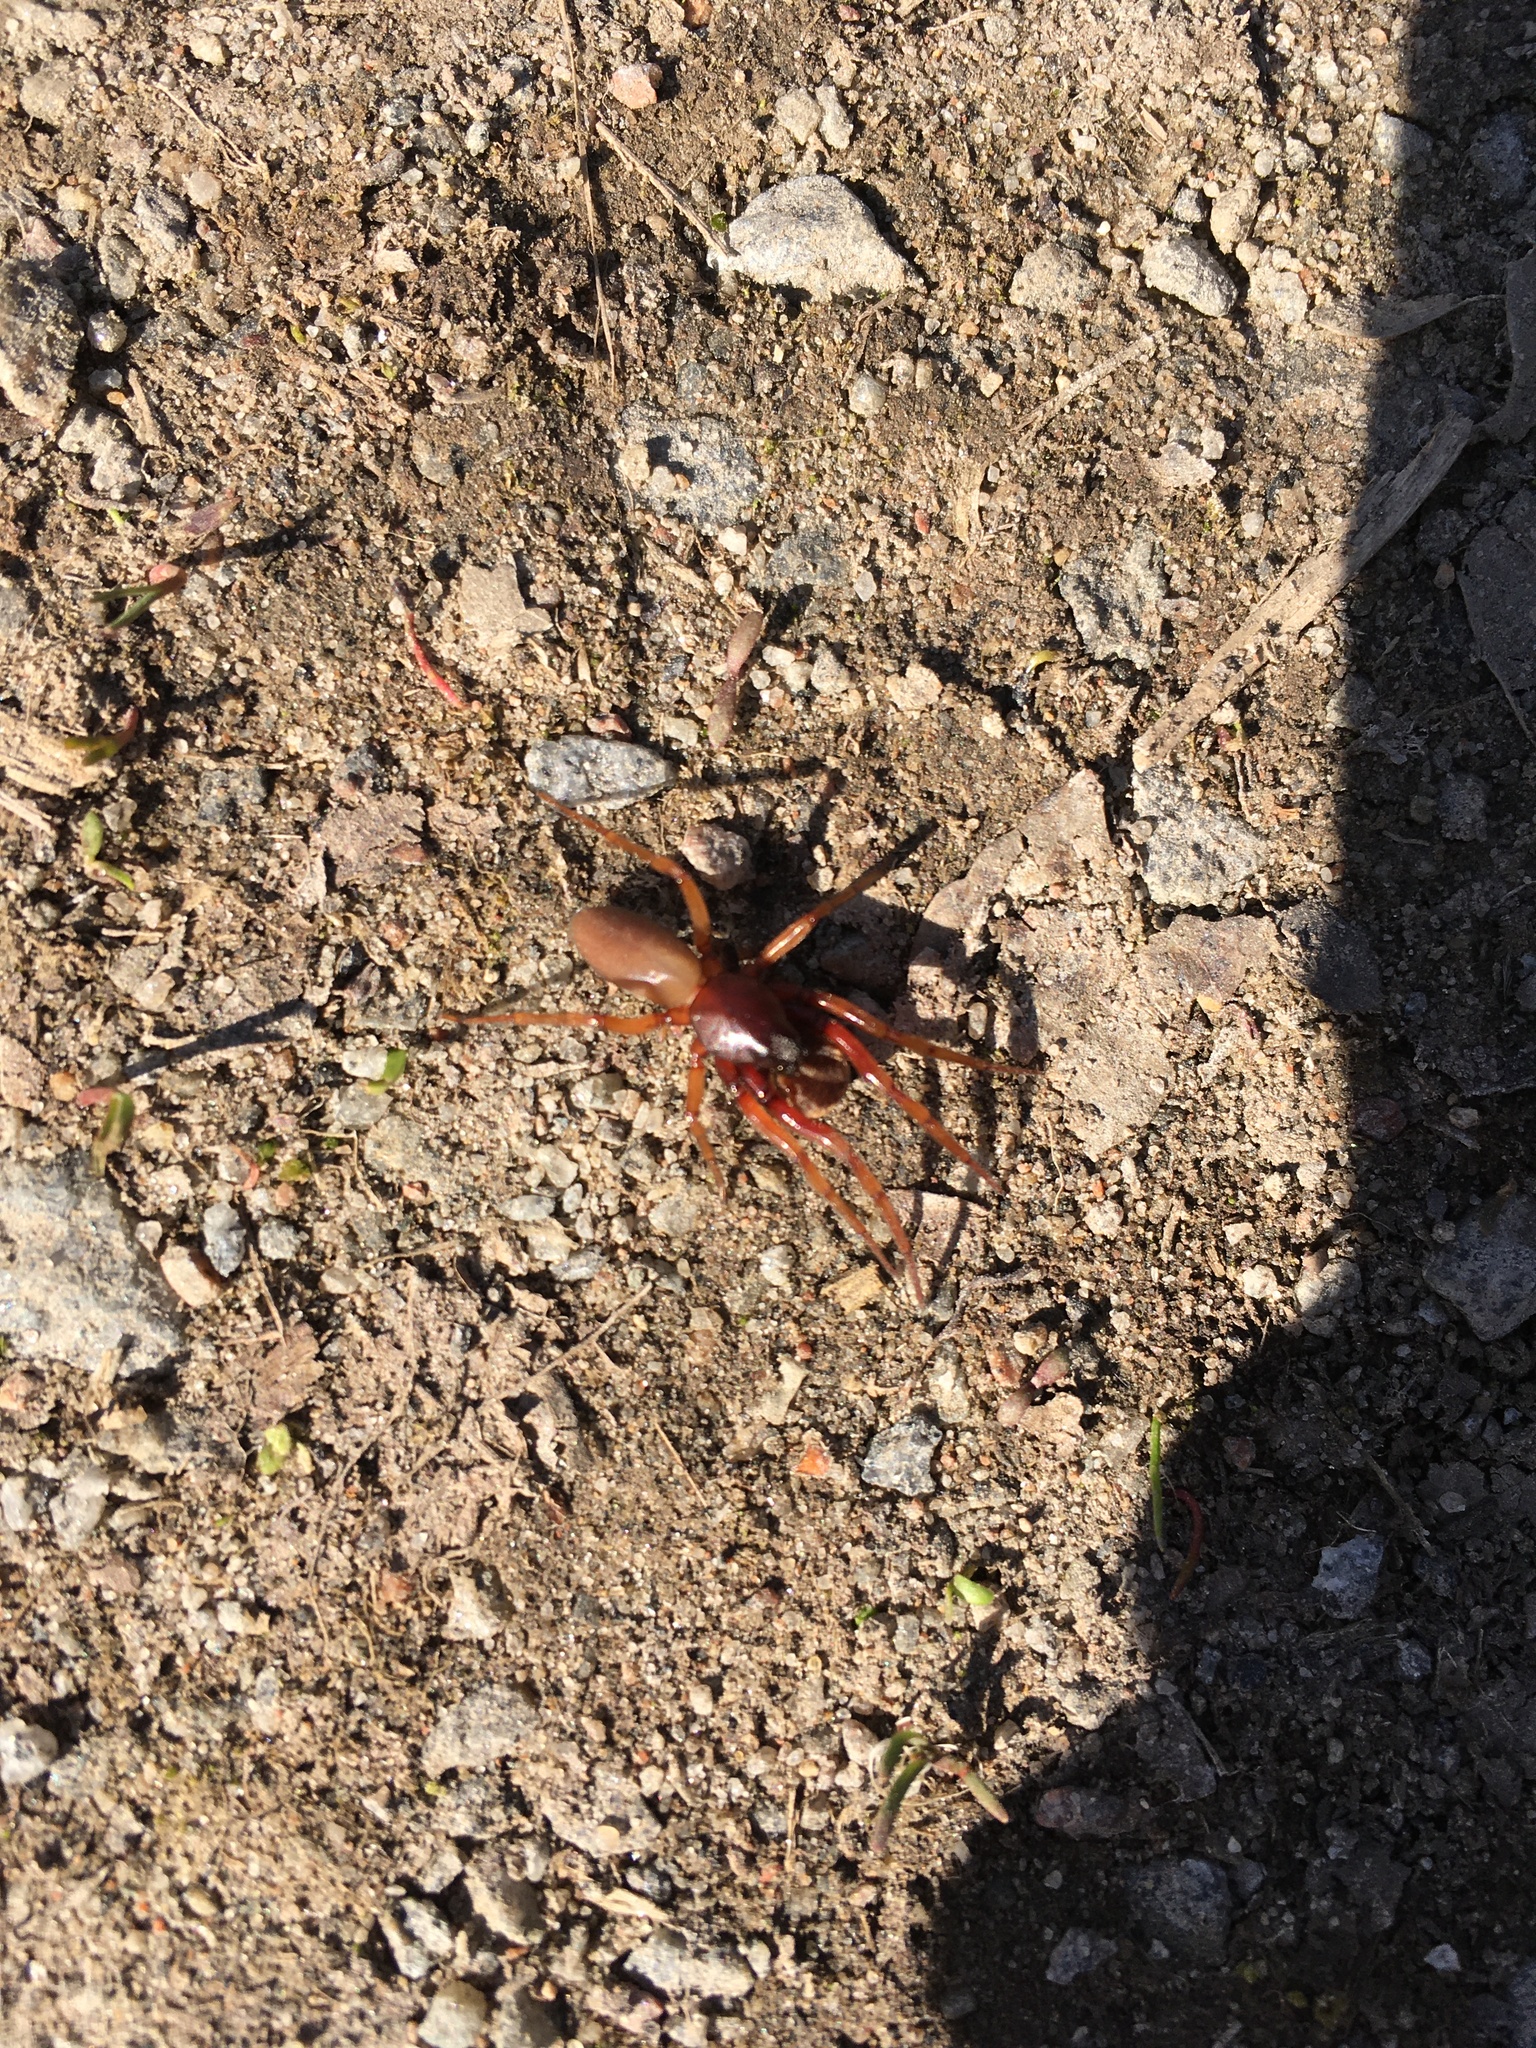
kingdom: Animalia
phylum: Arthropoda
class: Arachnida
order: Araneae
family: Dysderidae
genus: Dysdera
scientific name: Dysdera crocata
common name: Woodlouse spider
